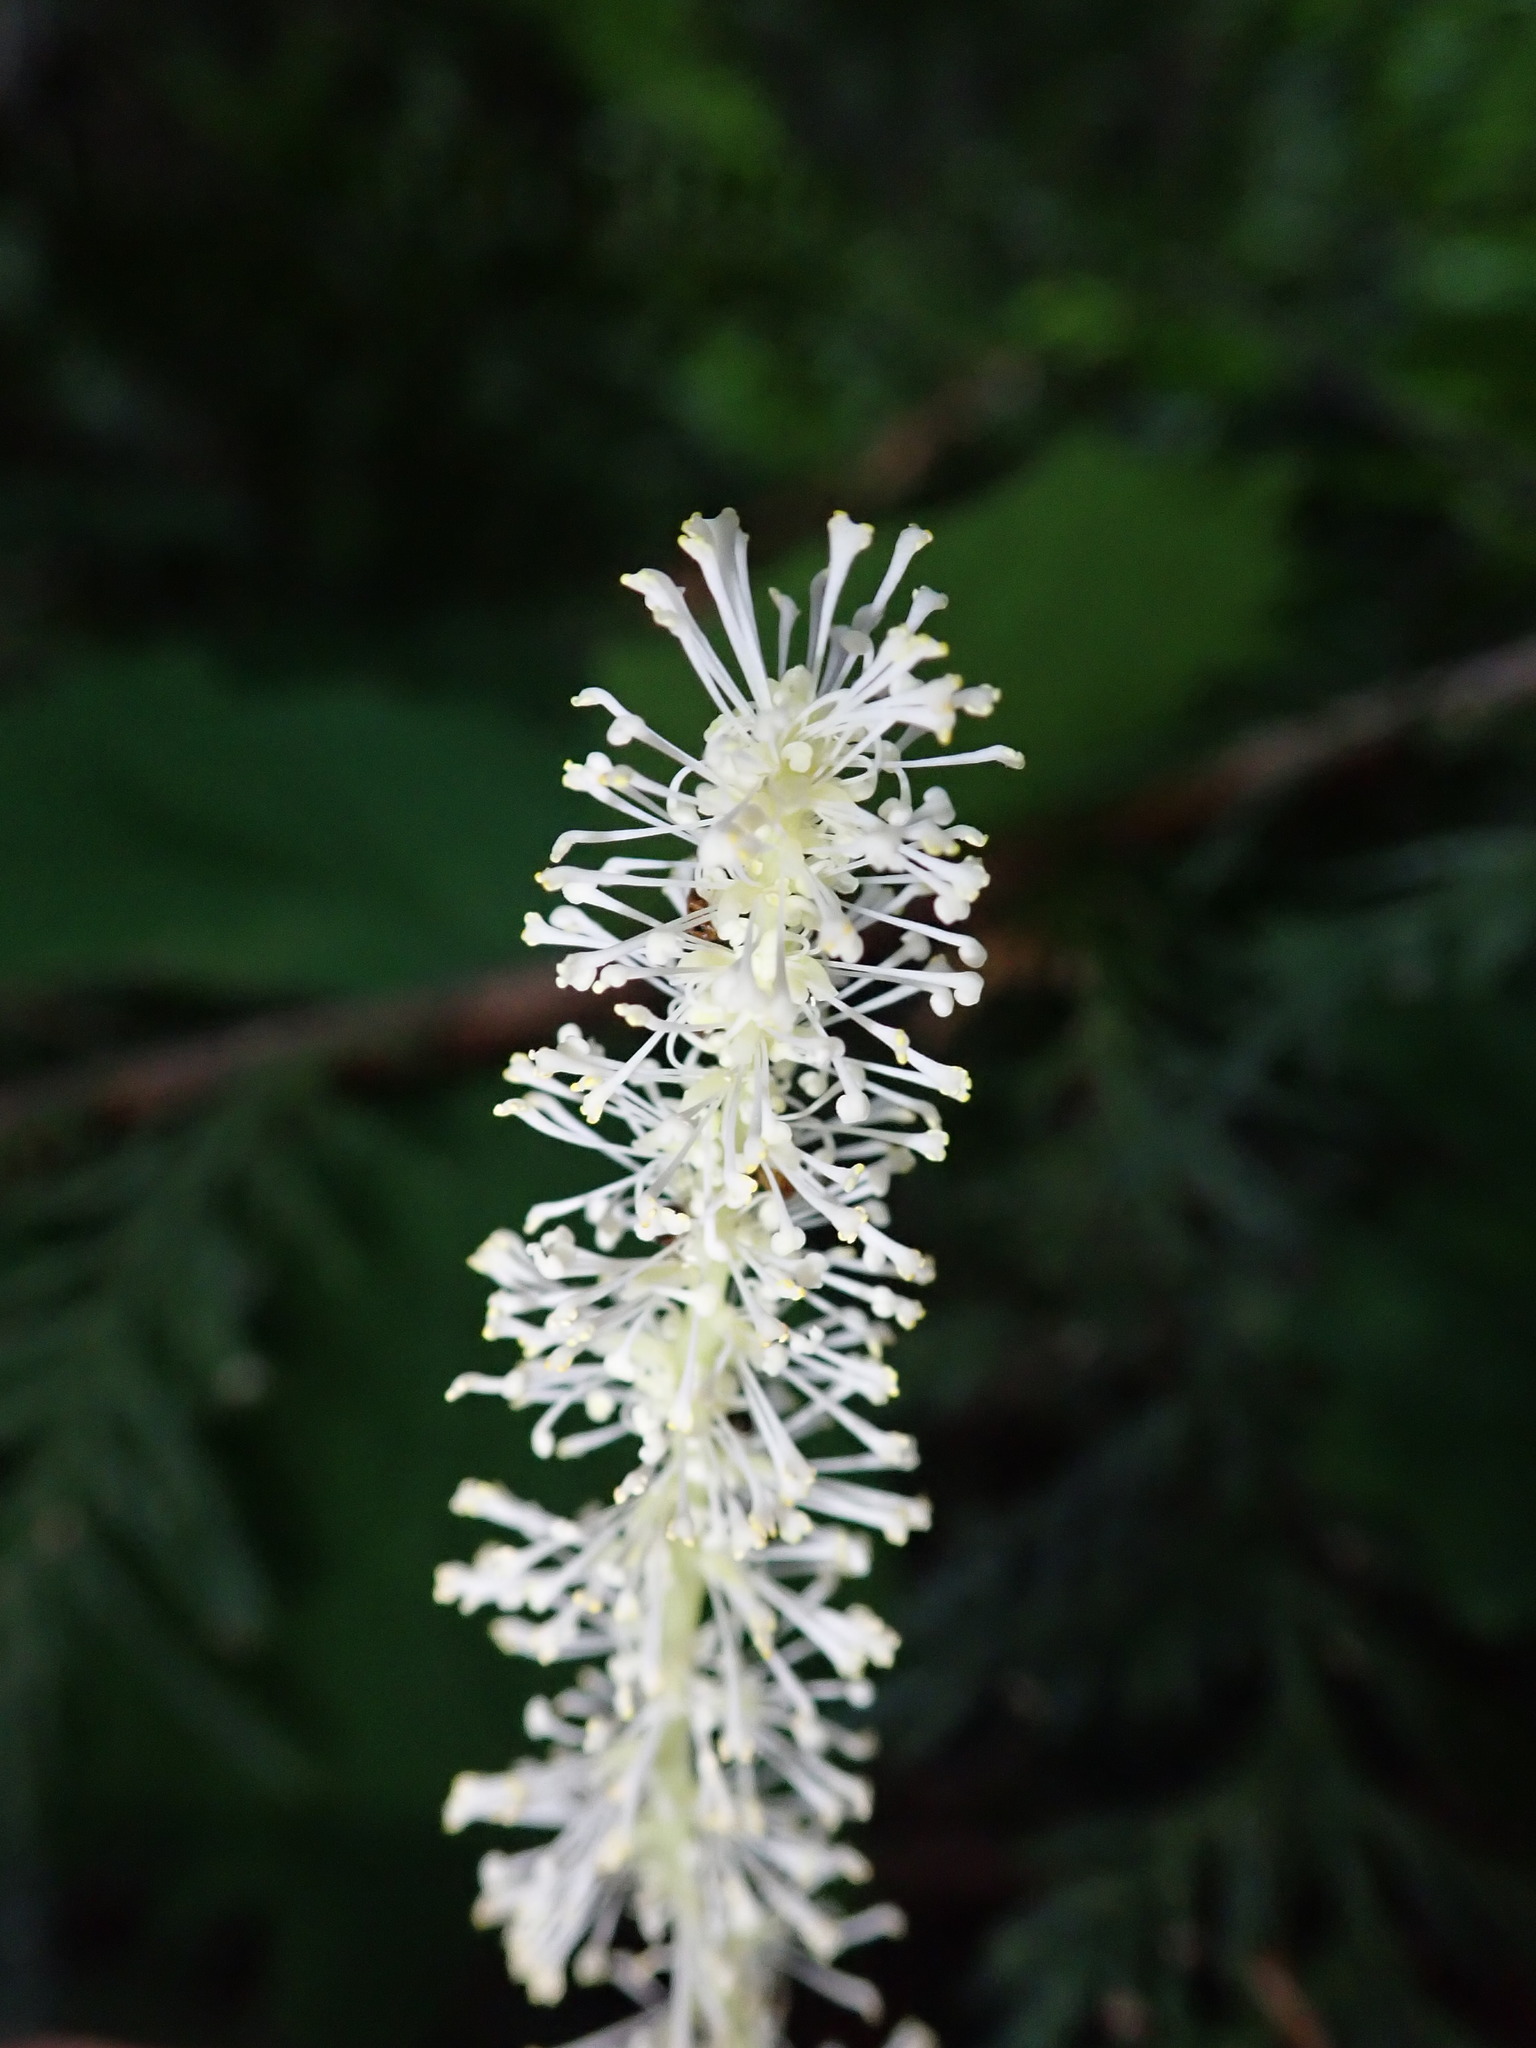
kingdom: Plantae
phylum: Tracheophyta
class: Magnoliopsida
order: Ranunculales
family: Berberidaceae
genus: Achlys
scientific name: Achlys triphylla
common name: Vanilla-leaf
